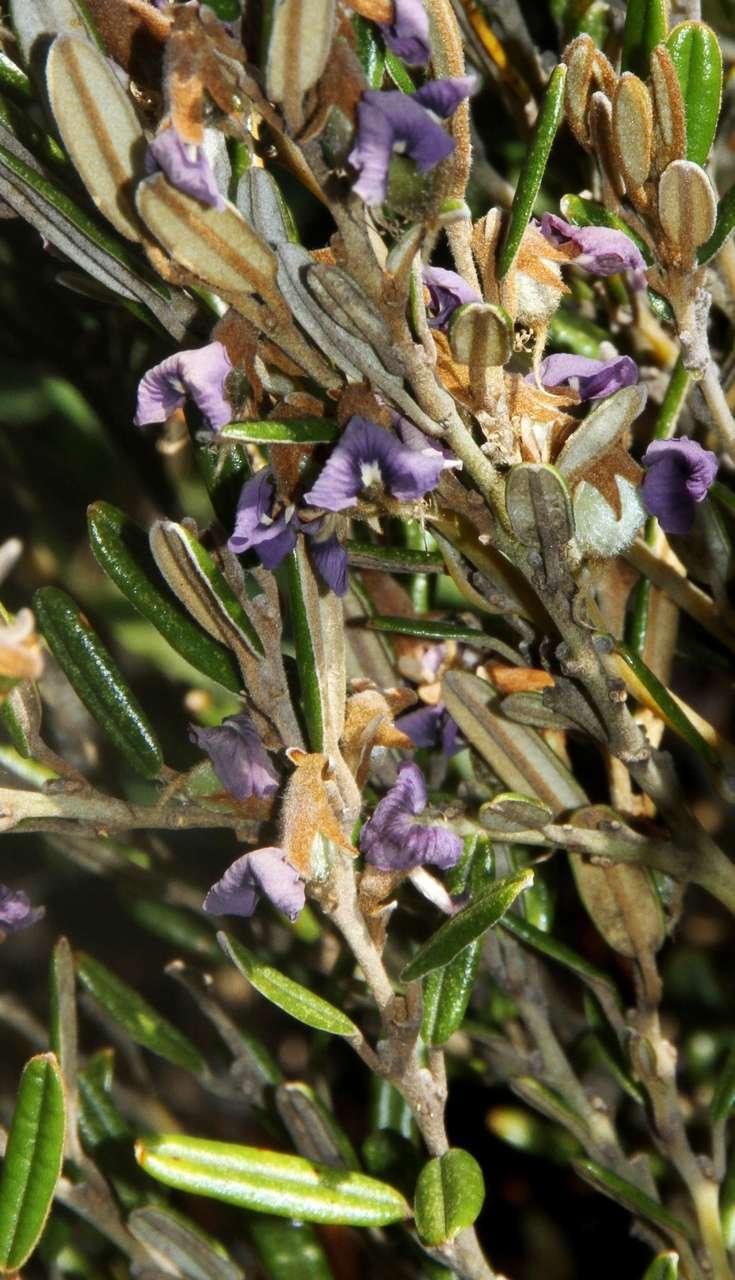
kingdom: Plantae
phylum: Tracheophyta
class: Magnoliopsida
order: Fabales
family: Fabaceae
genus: Hovea
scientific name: Hovea montana
